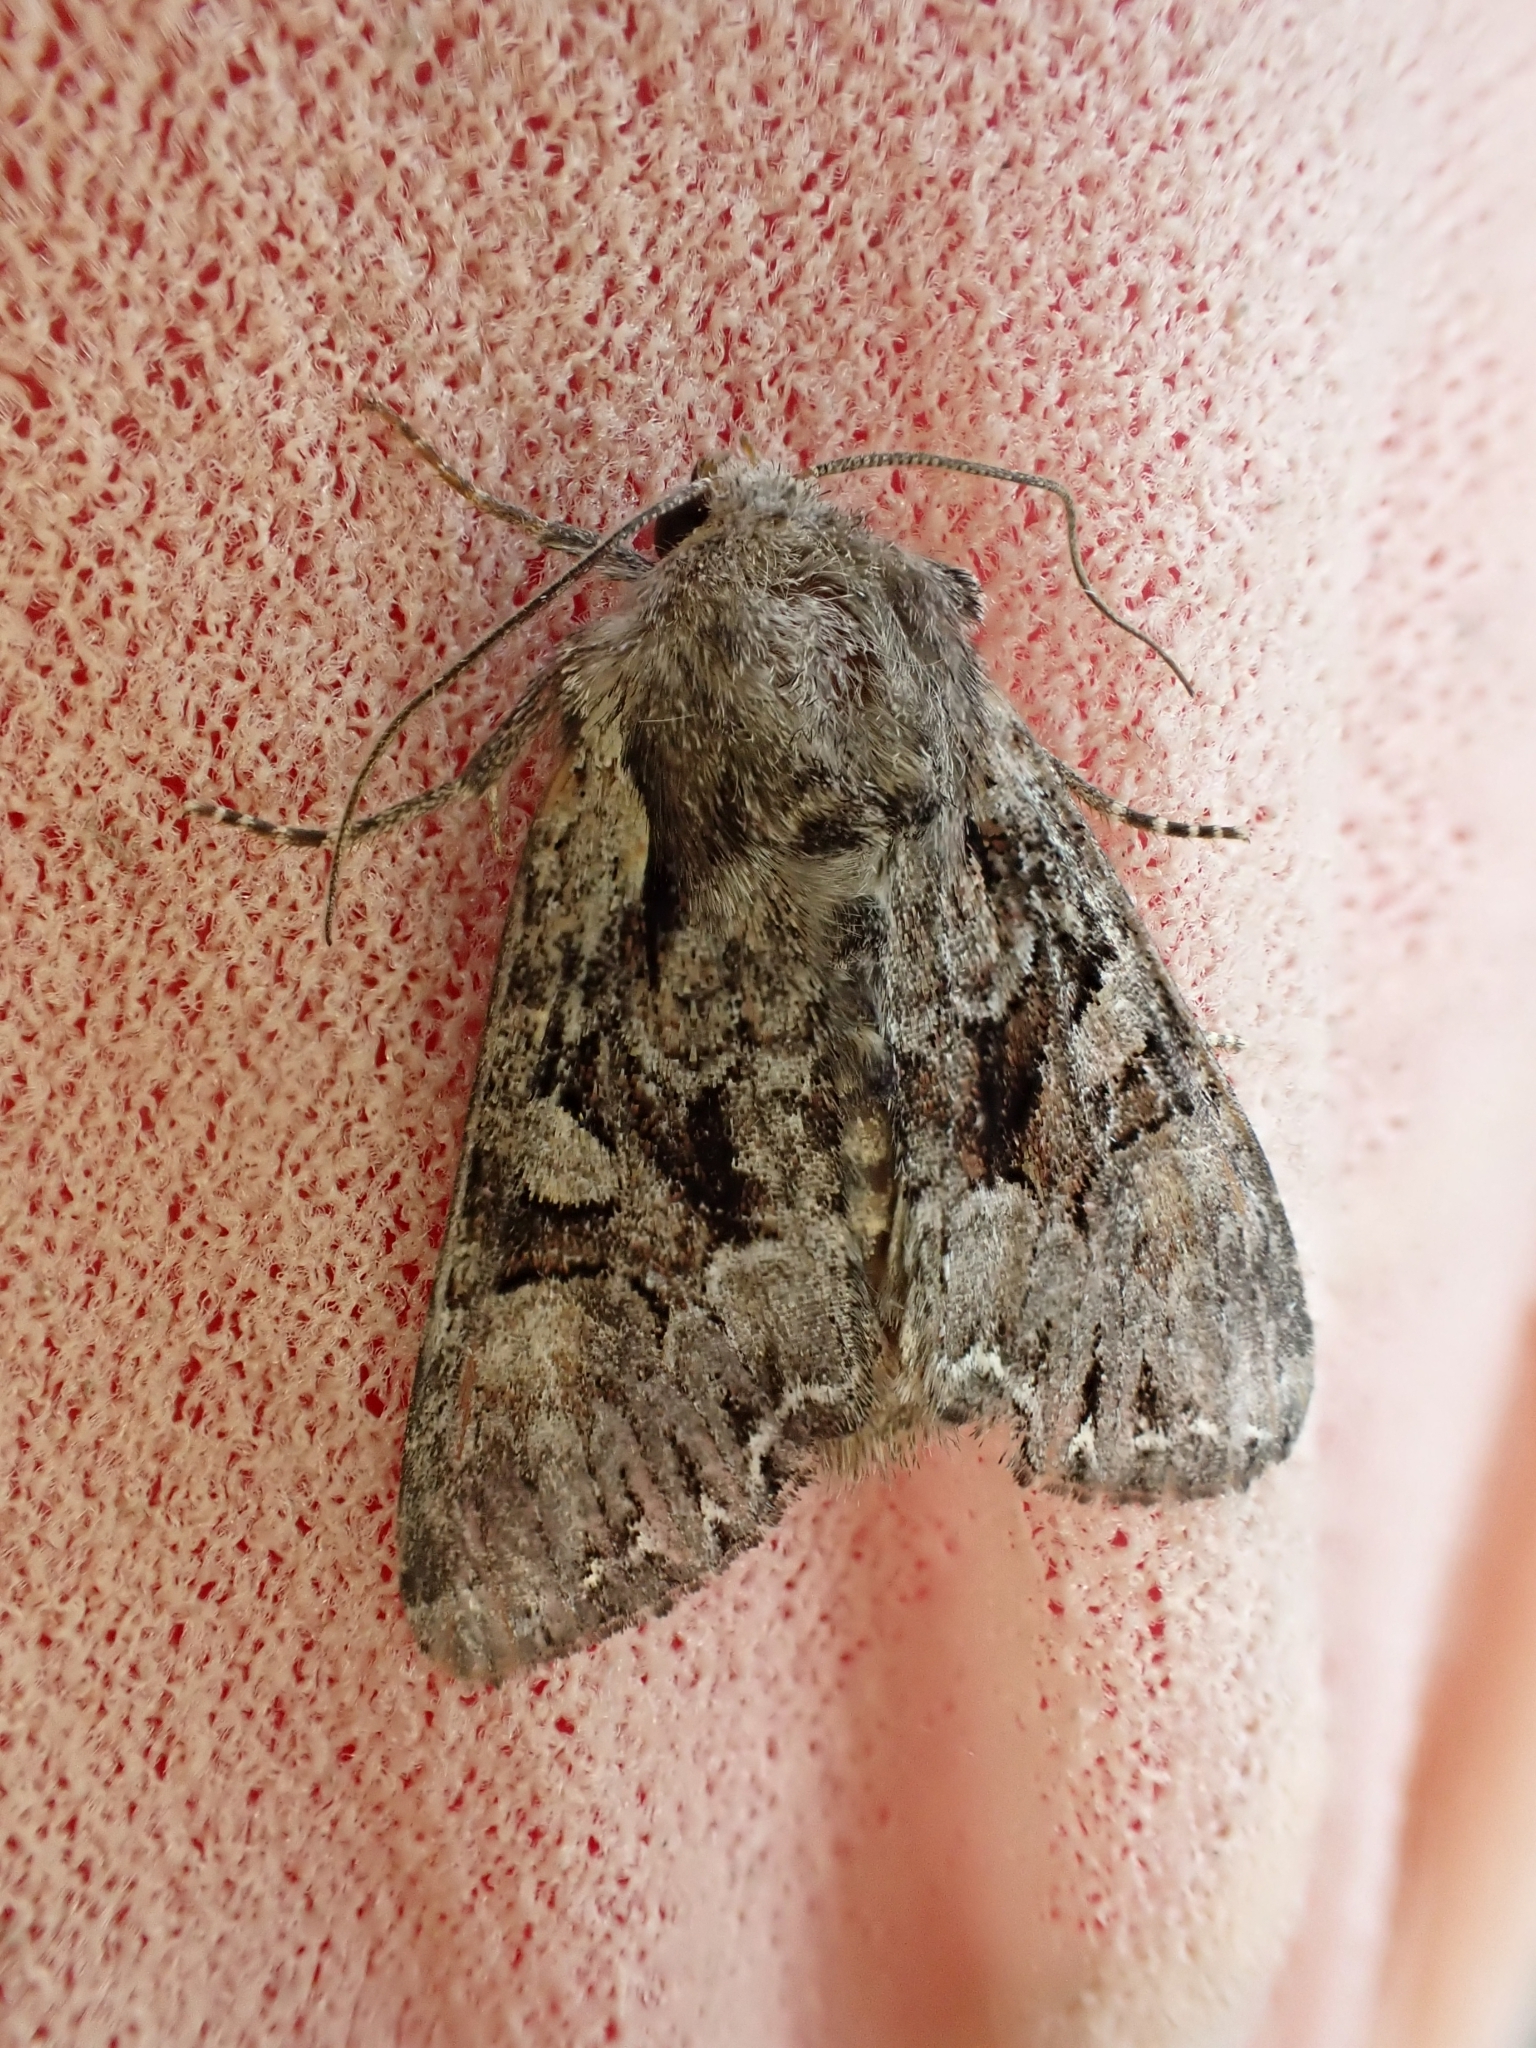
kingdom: Animalia
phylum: Arthropoda
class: Insecta
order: Lepidoptera
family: Noctuidae
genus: Lacanobia
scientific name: Lacanobia thalassina
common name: Pale-shouldered brocade
